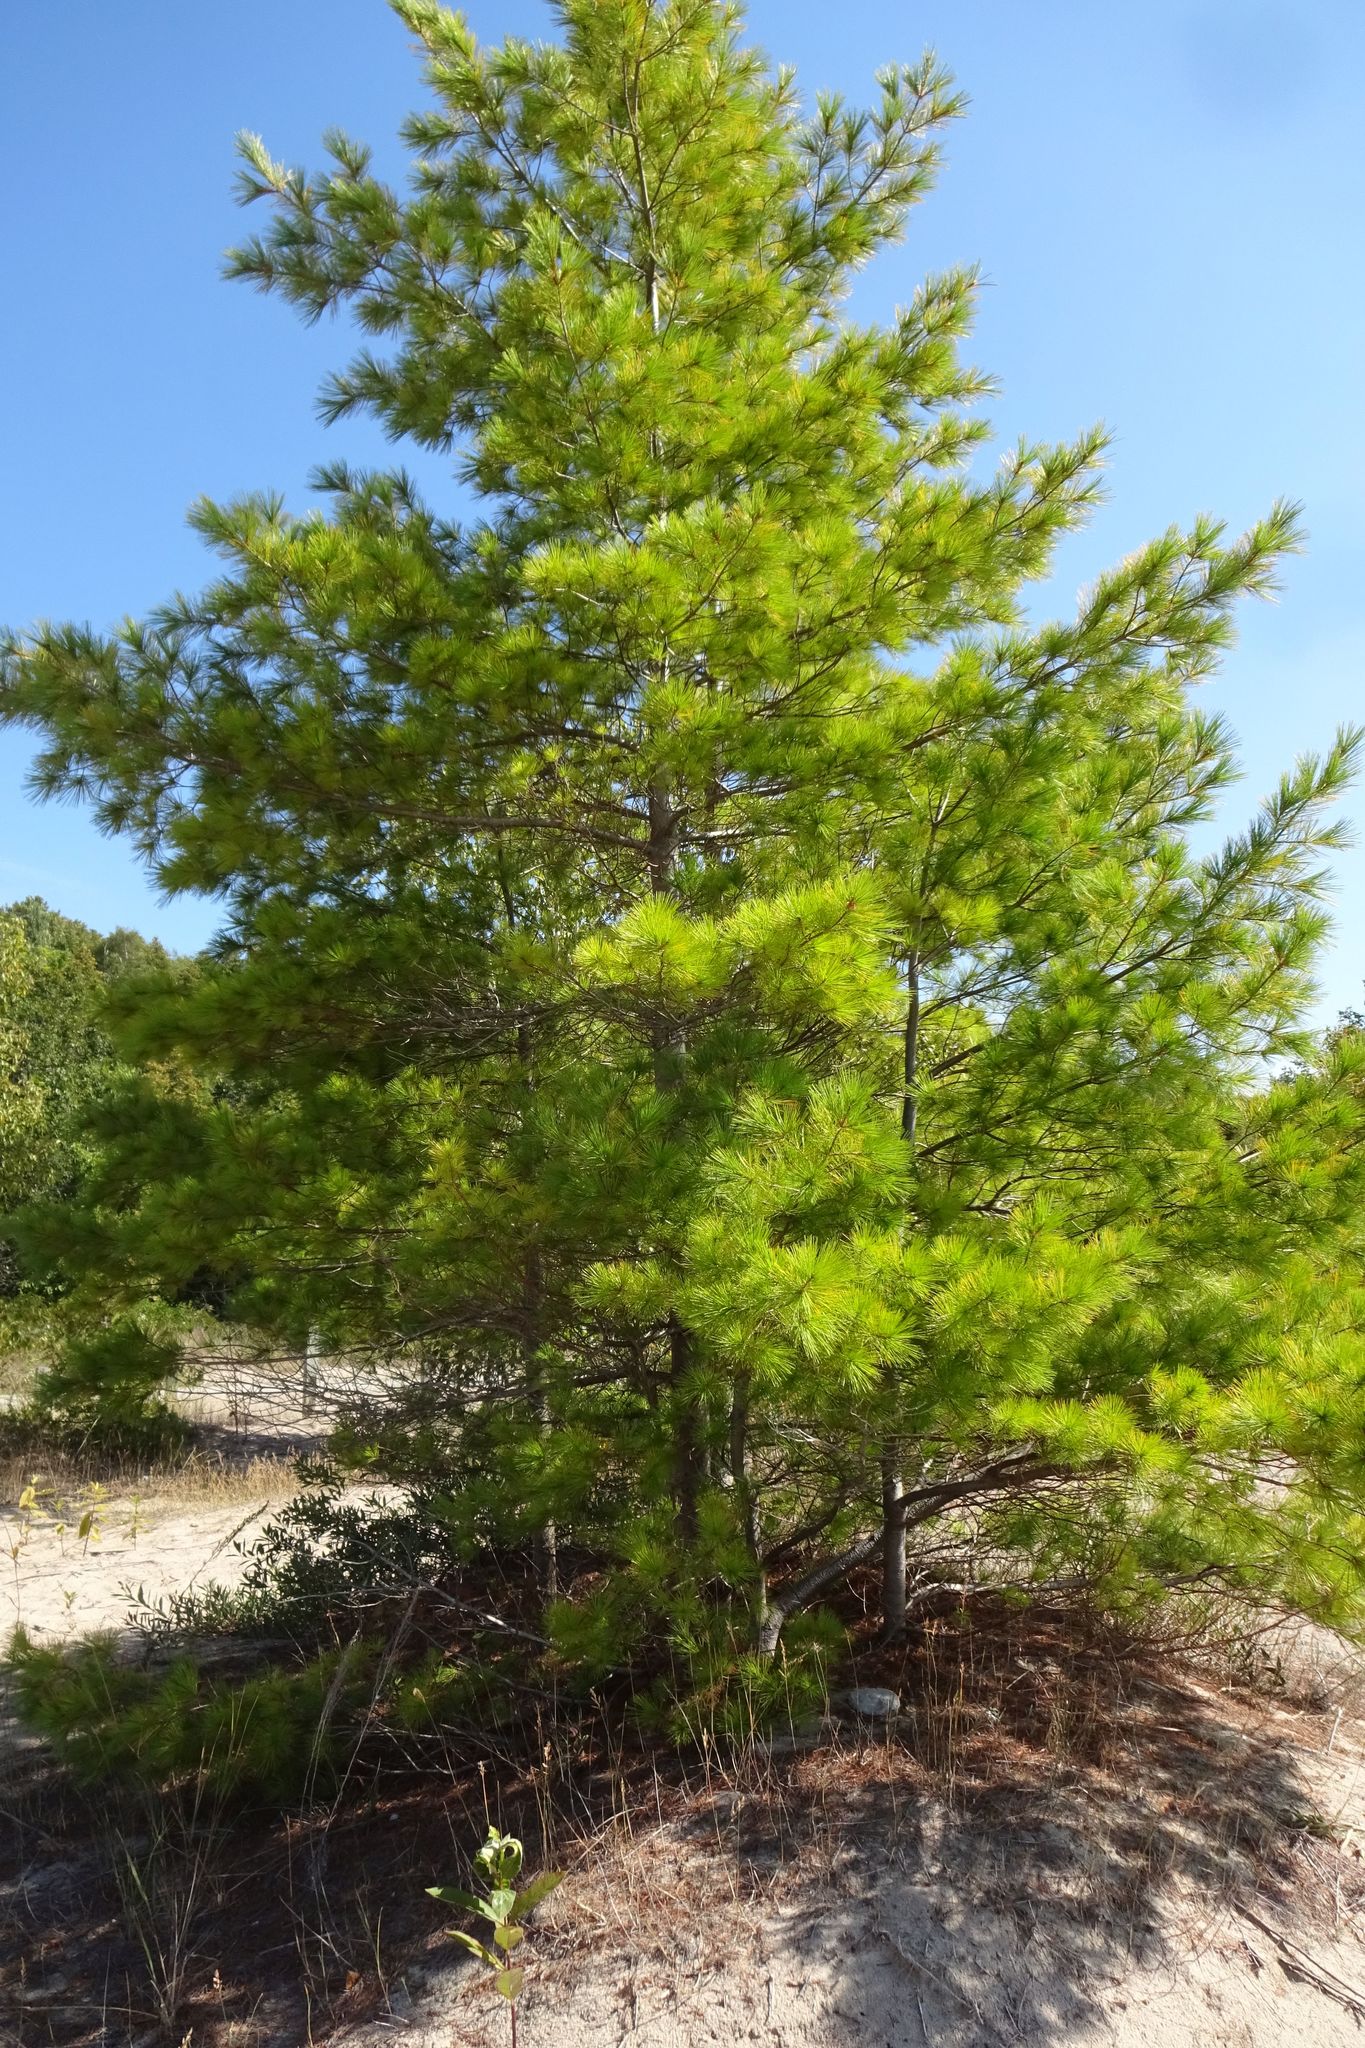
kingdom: Plantae
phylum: Tracheophyta
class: Pinopsida
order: Pinales
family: Pinaceae
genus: Pinus
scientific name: Pinus strobus
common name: Weymouth pine
